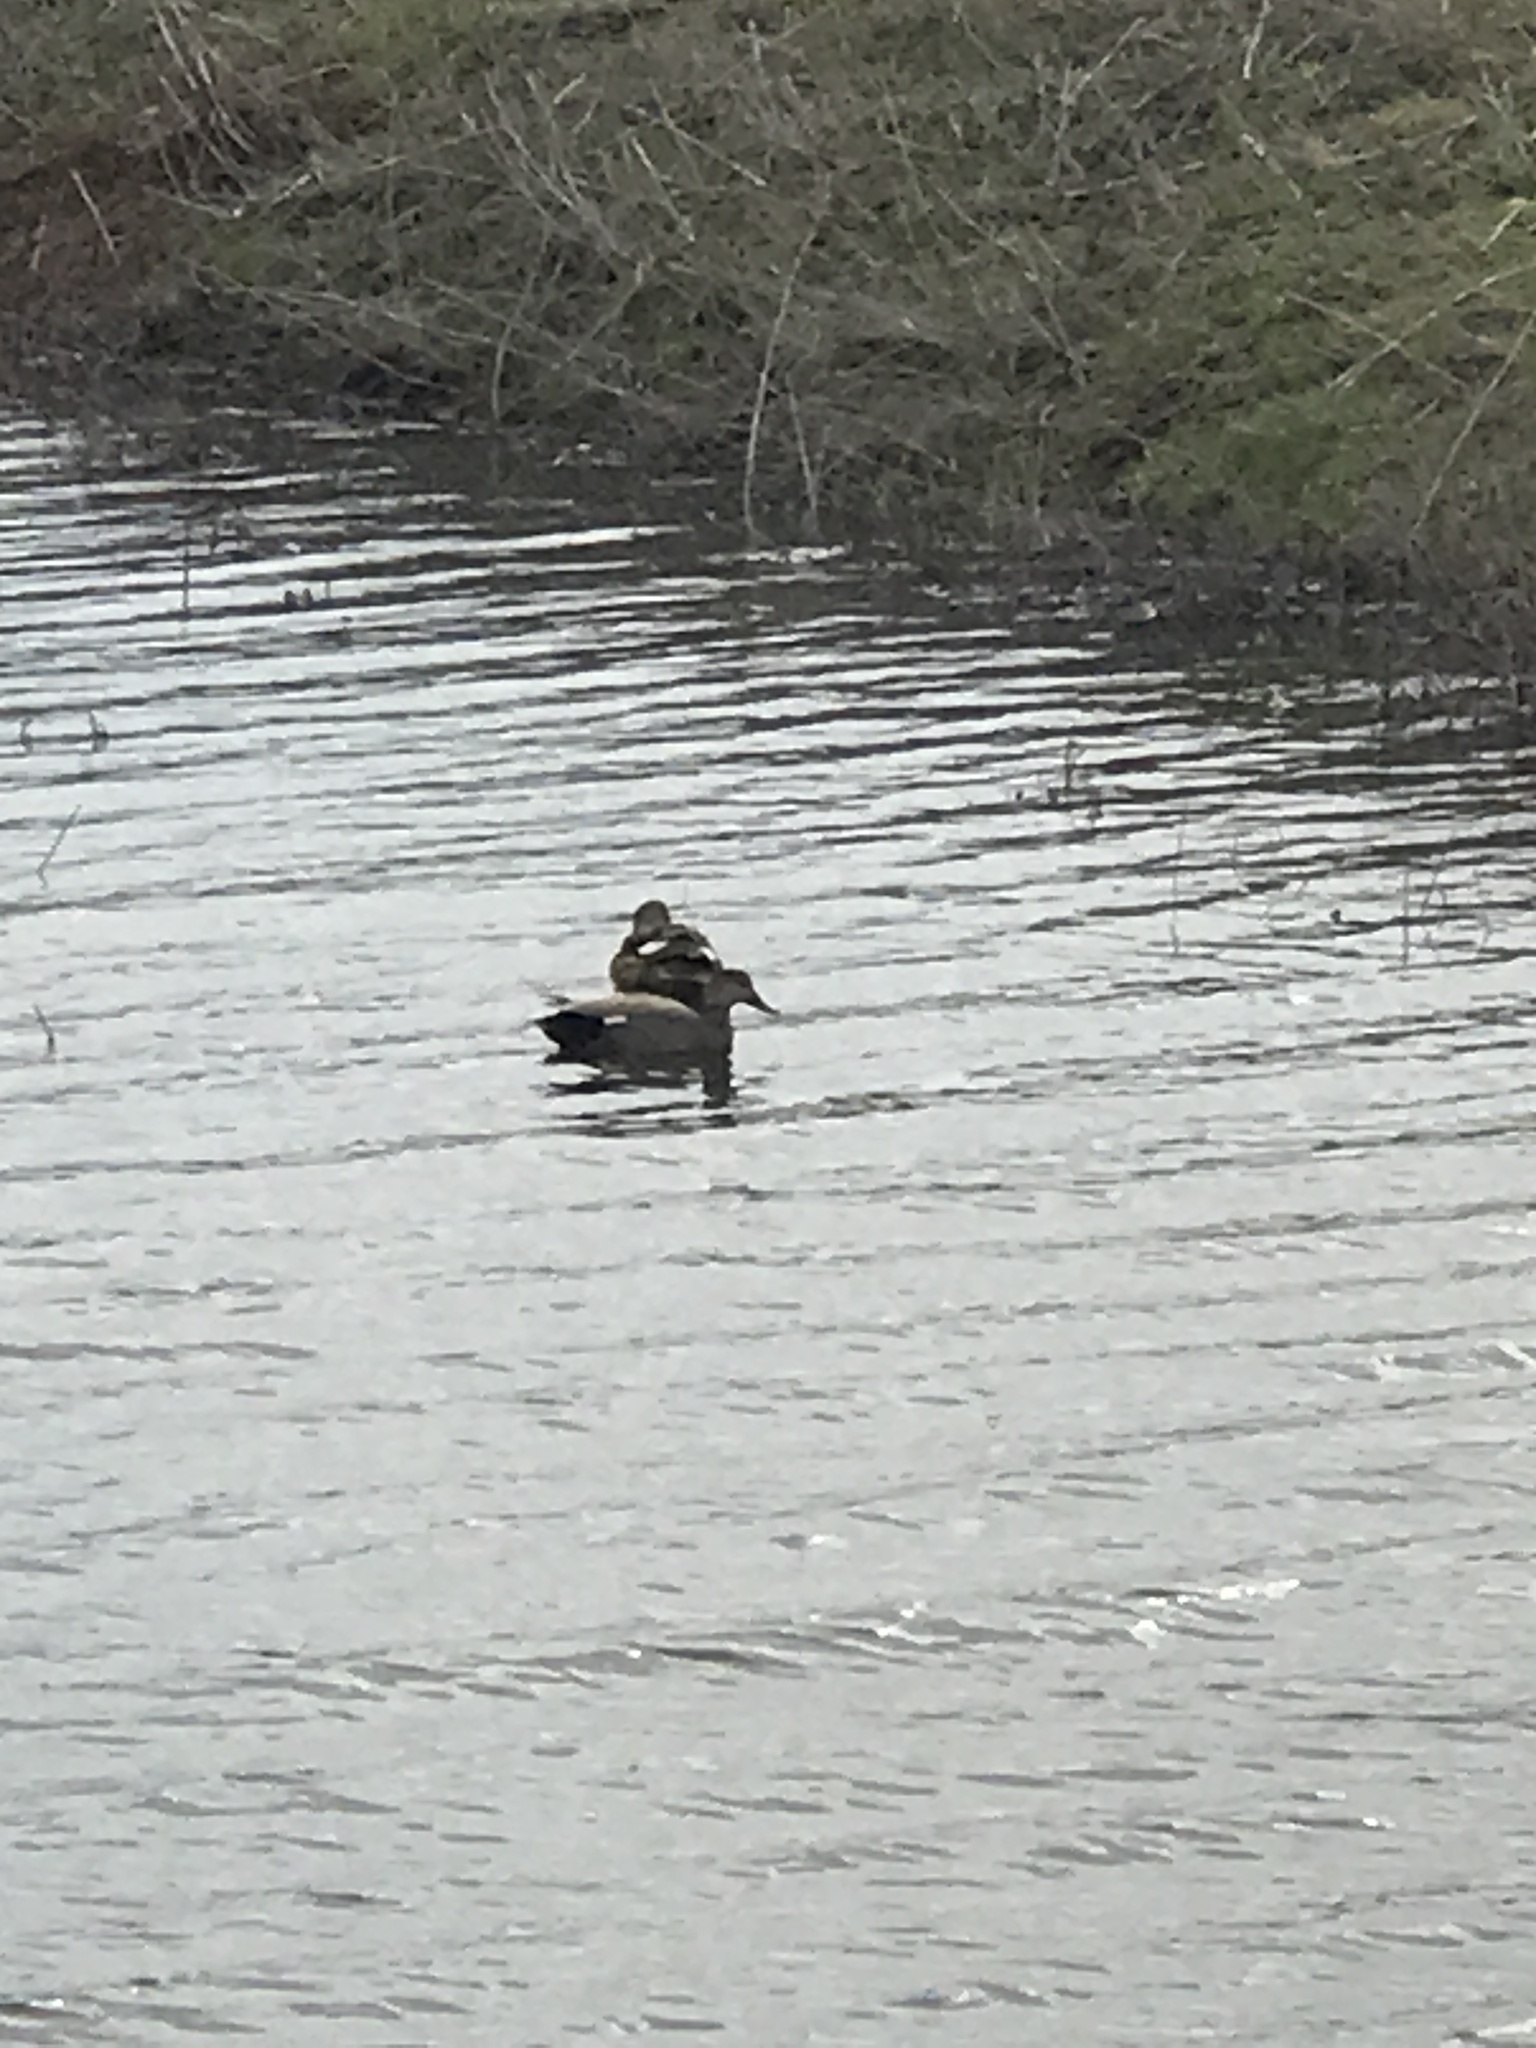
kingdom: Animalia
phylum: Chordata
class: Aves
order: Anseriformes
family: Anatidae
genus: Mareca
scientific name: Mareca strepera
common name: Gadwall
